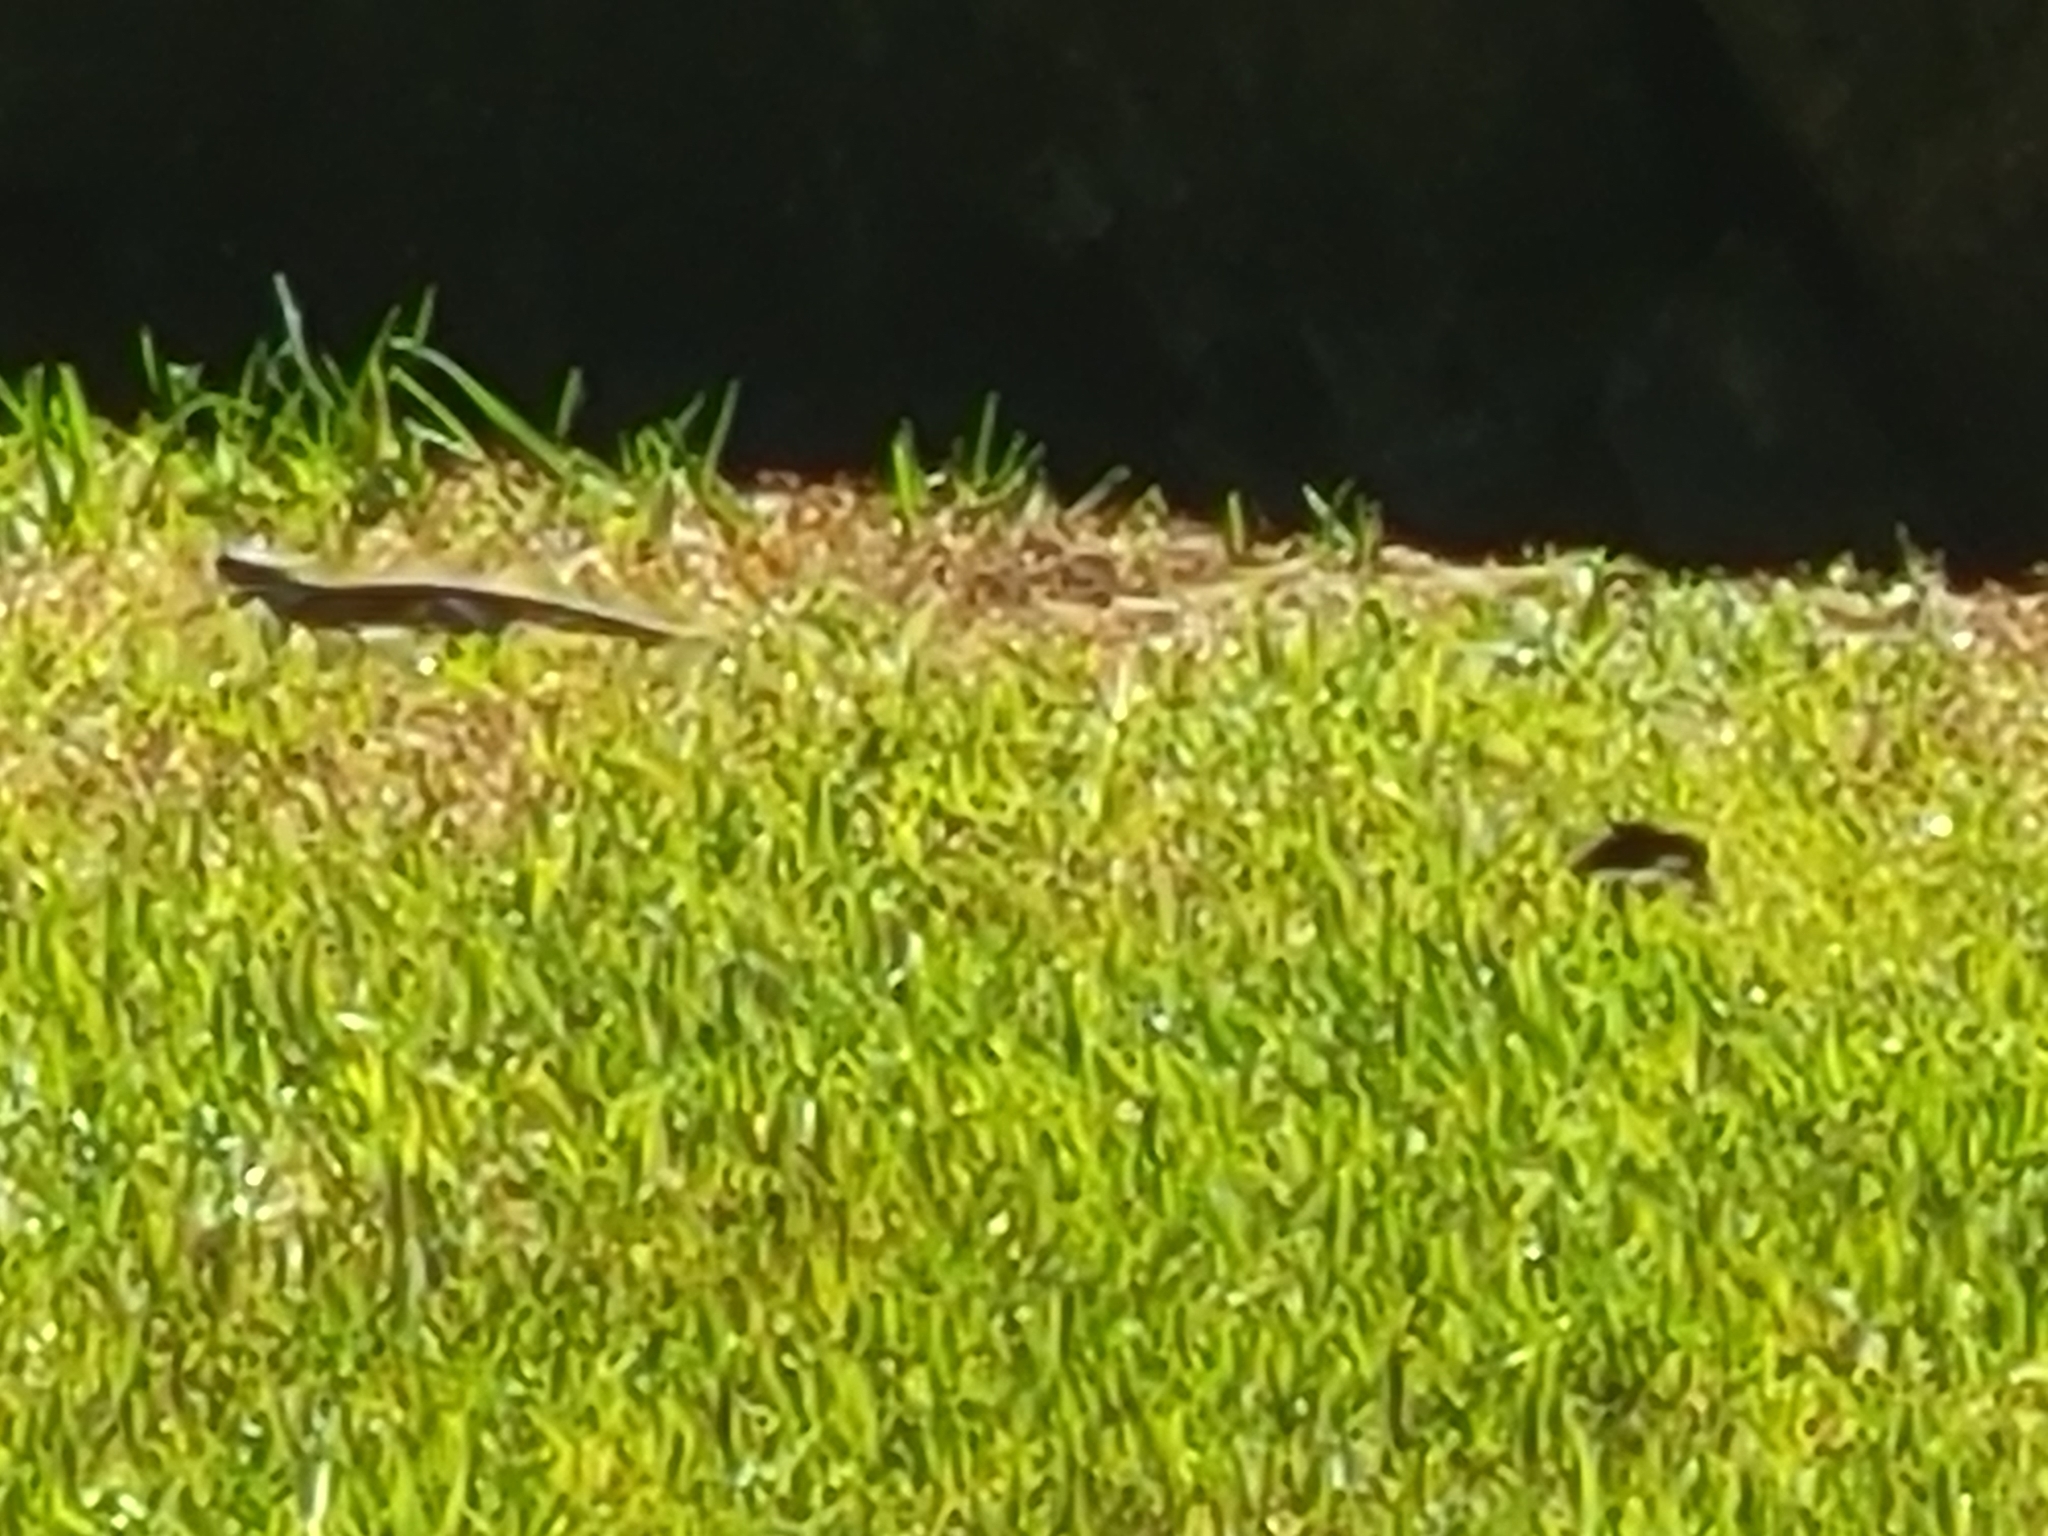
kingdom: Animalia
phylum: Chordata
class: Squamata
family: Lacertidae
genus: Podarcis
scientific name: Podarcis muralis
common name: Common wall lizard
